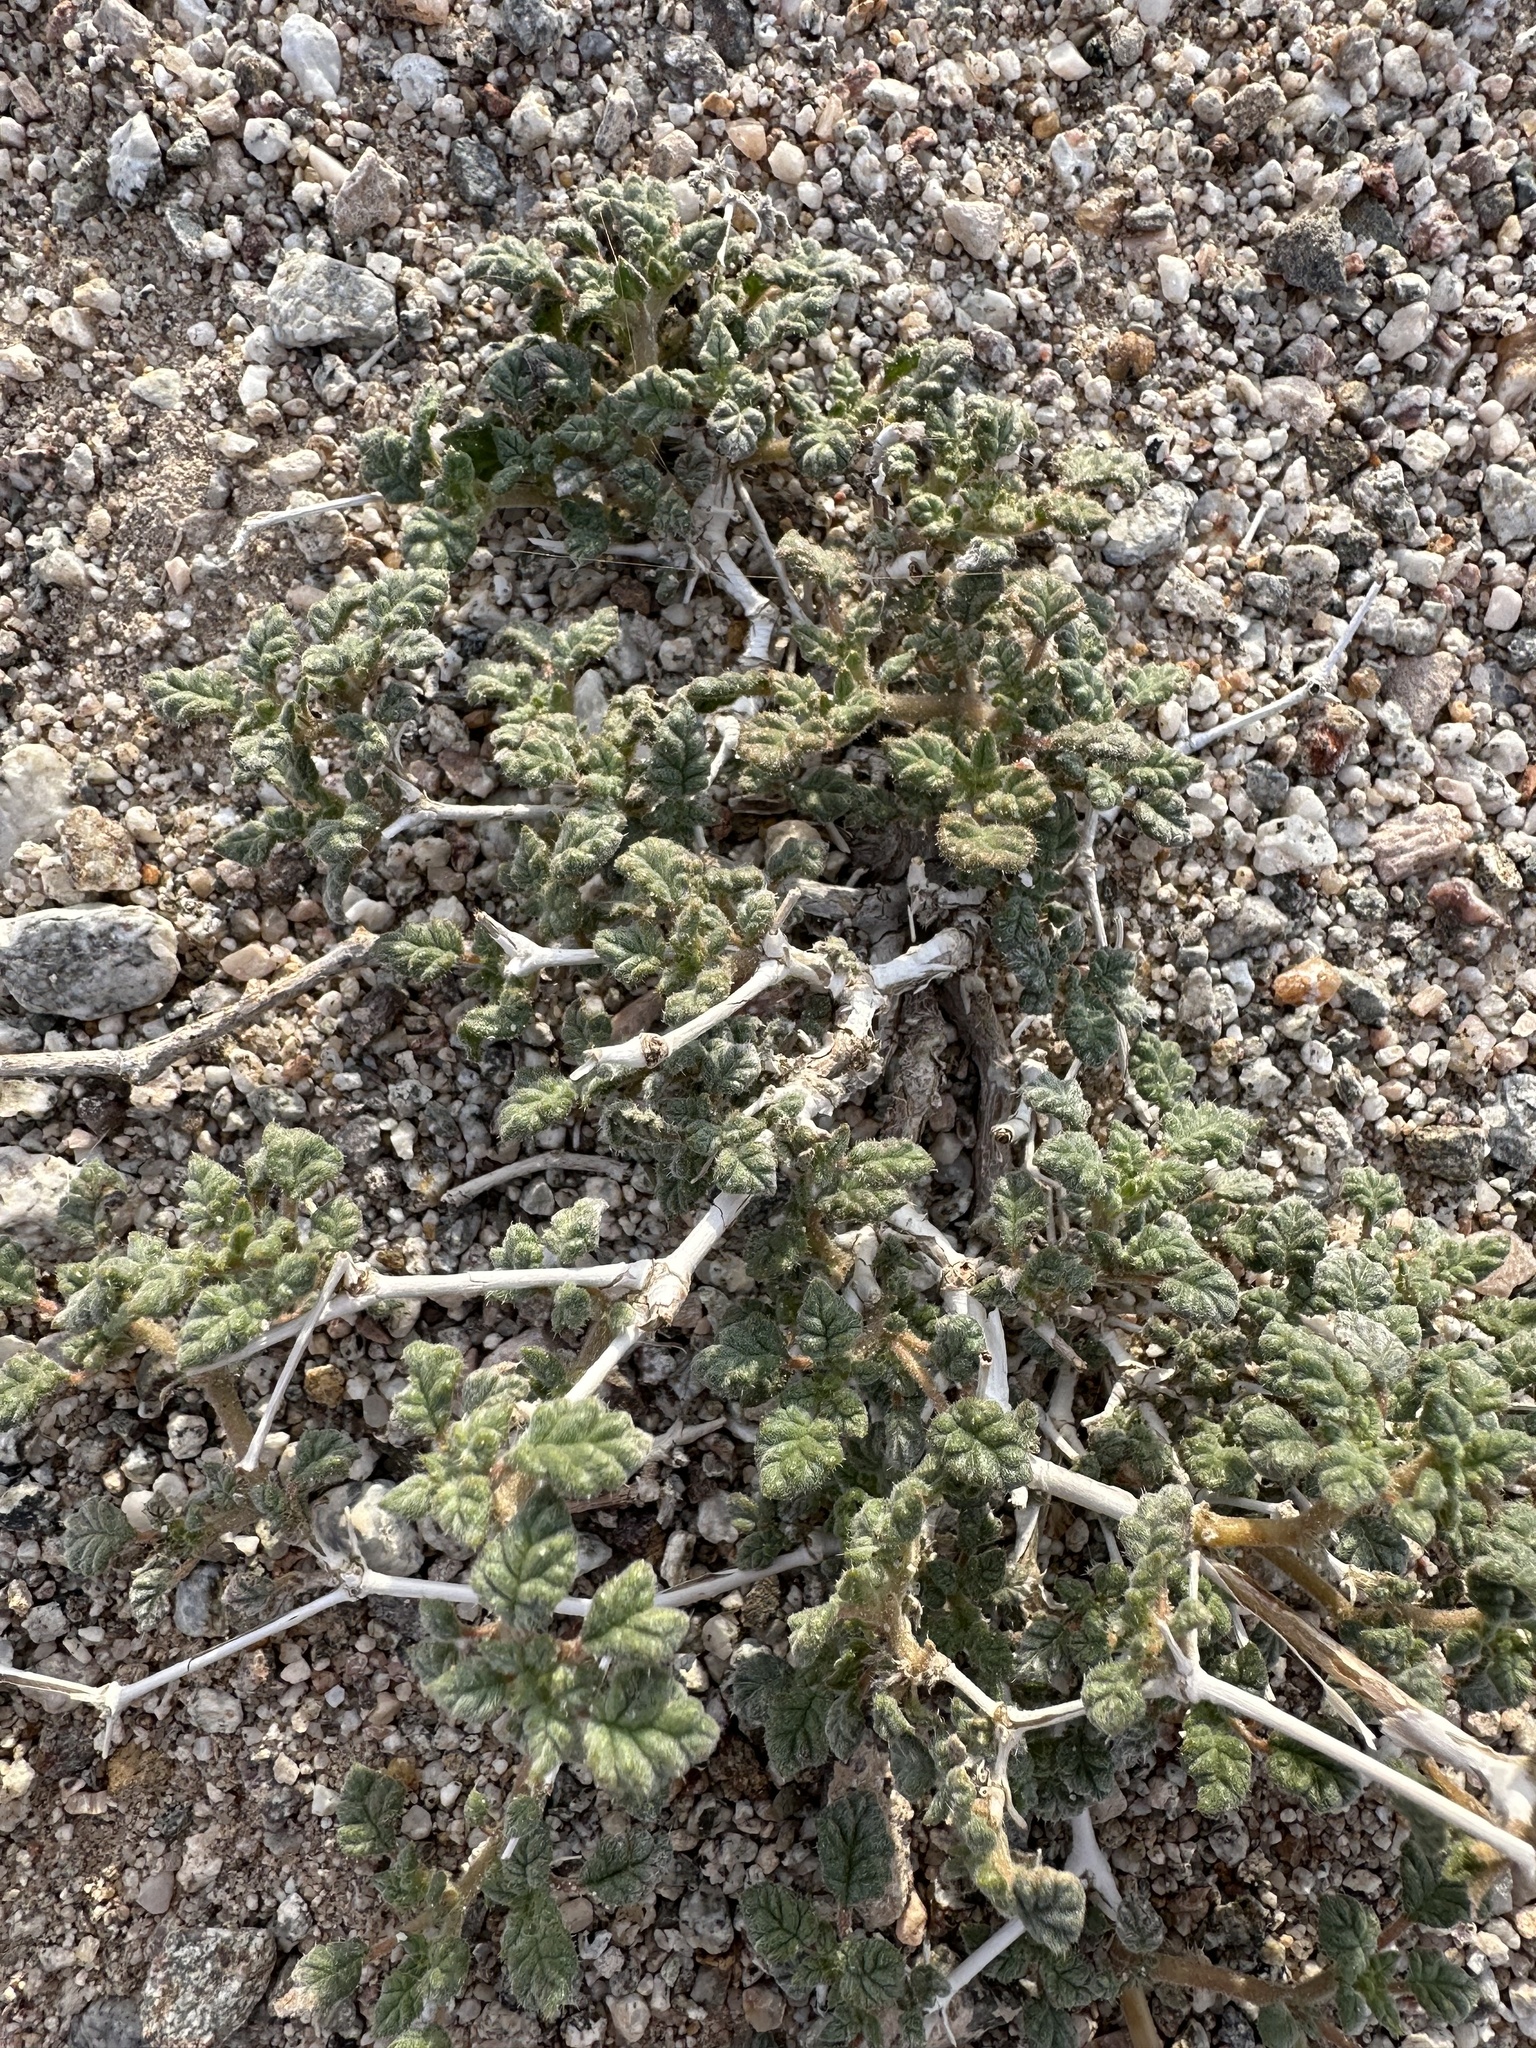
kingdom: Plantae
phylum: Tracheophyta
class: Magnoliopsida
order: Boraginales
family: Ehretiaceae
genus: Tiquilia
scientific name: Tiquilia palmeri
